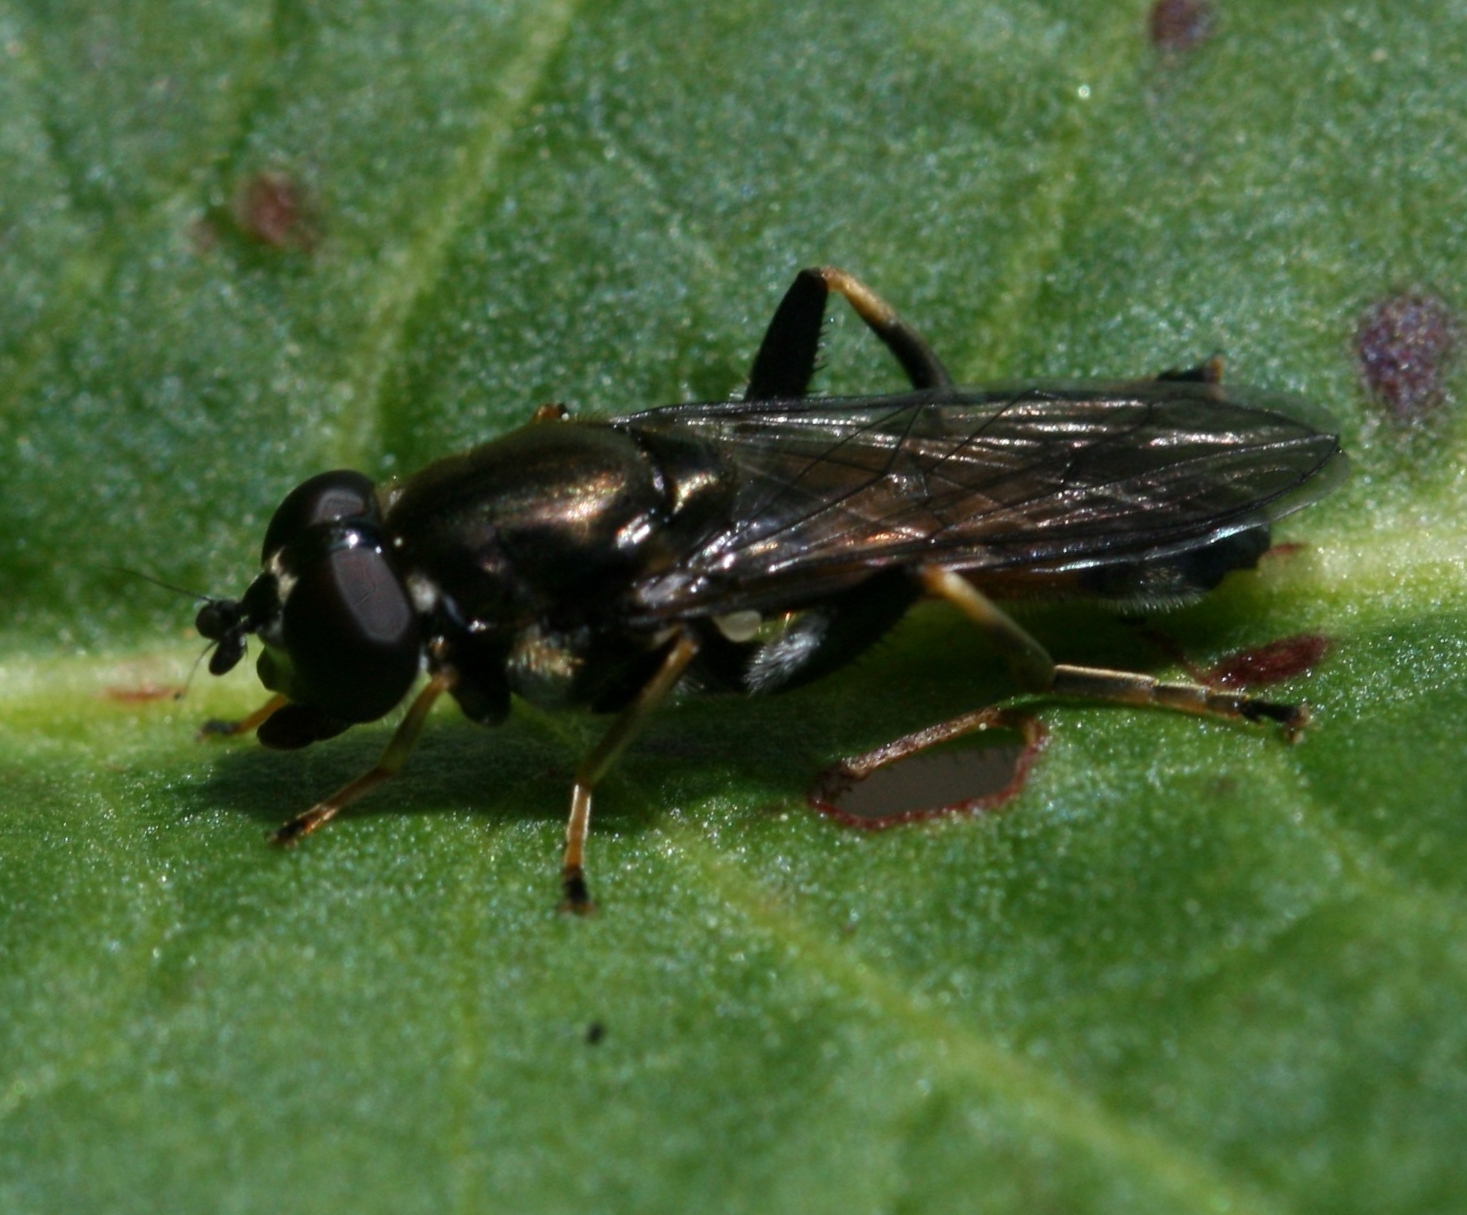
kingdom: Animalia
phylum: Arthropoda
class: Insecta
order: Diptera
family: Syrphidae
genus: Xylota
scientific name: Xylota segnis
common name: Brown-toed forest fly
